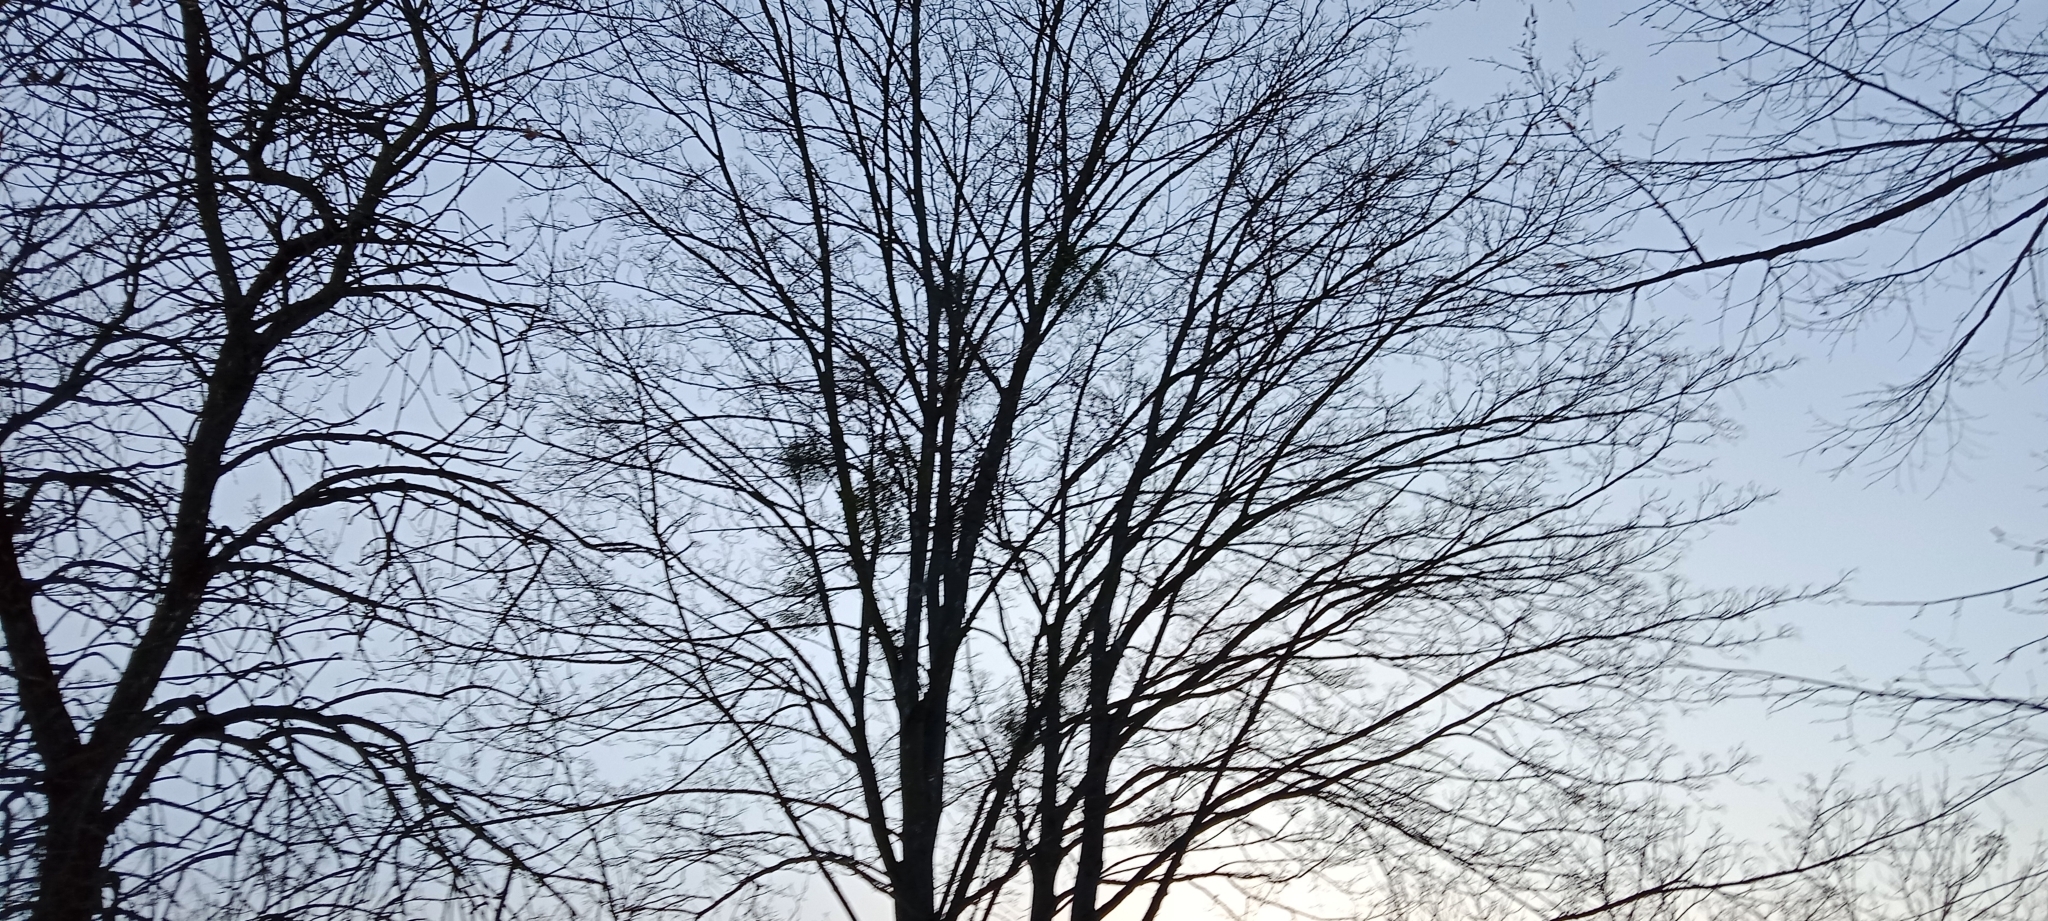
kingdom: Plantae
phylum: Tracheophyta
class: Magnoliopsida
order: Santalales
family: Viscaceae
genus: Viscum
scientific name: Viscum album
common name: Mistletoe
